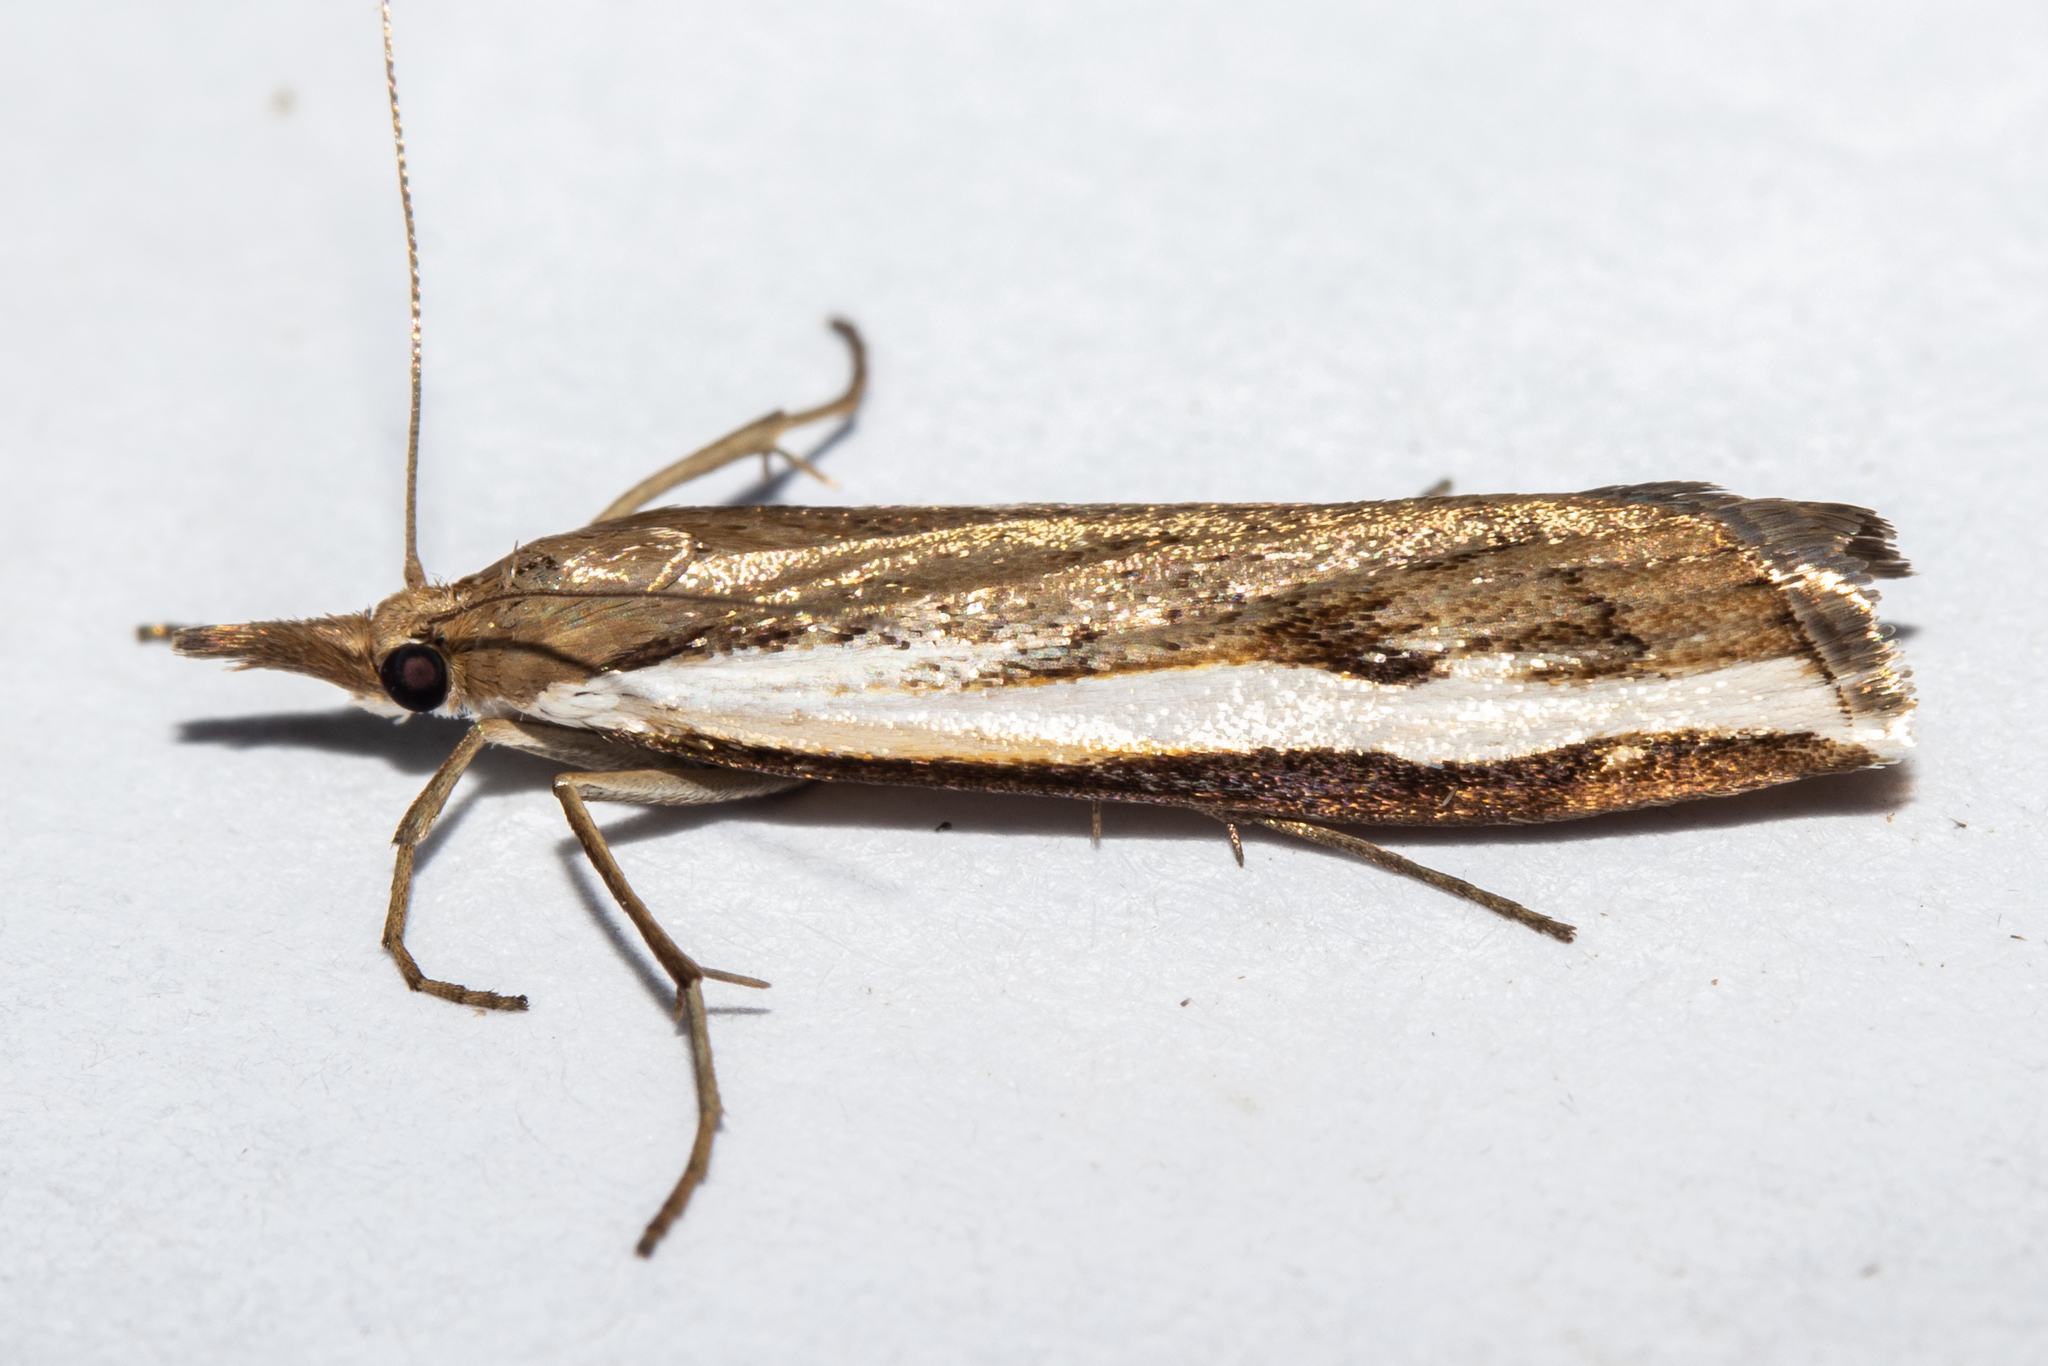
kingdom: Animalia
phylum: Arthropoda
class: Insecta
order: Lepidoptera
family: Crambidae
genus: Orocrambus
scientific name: Orocrambus flexuosellus
